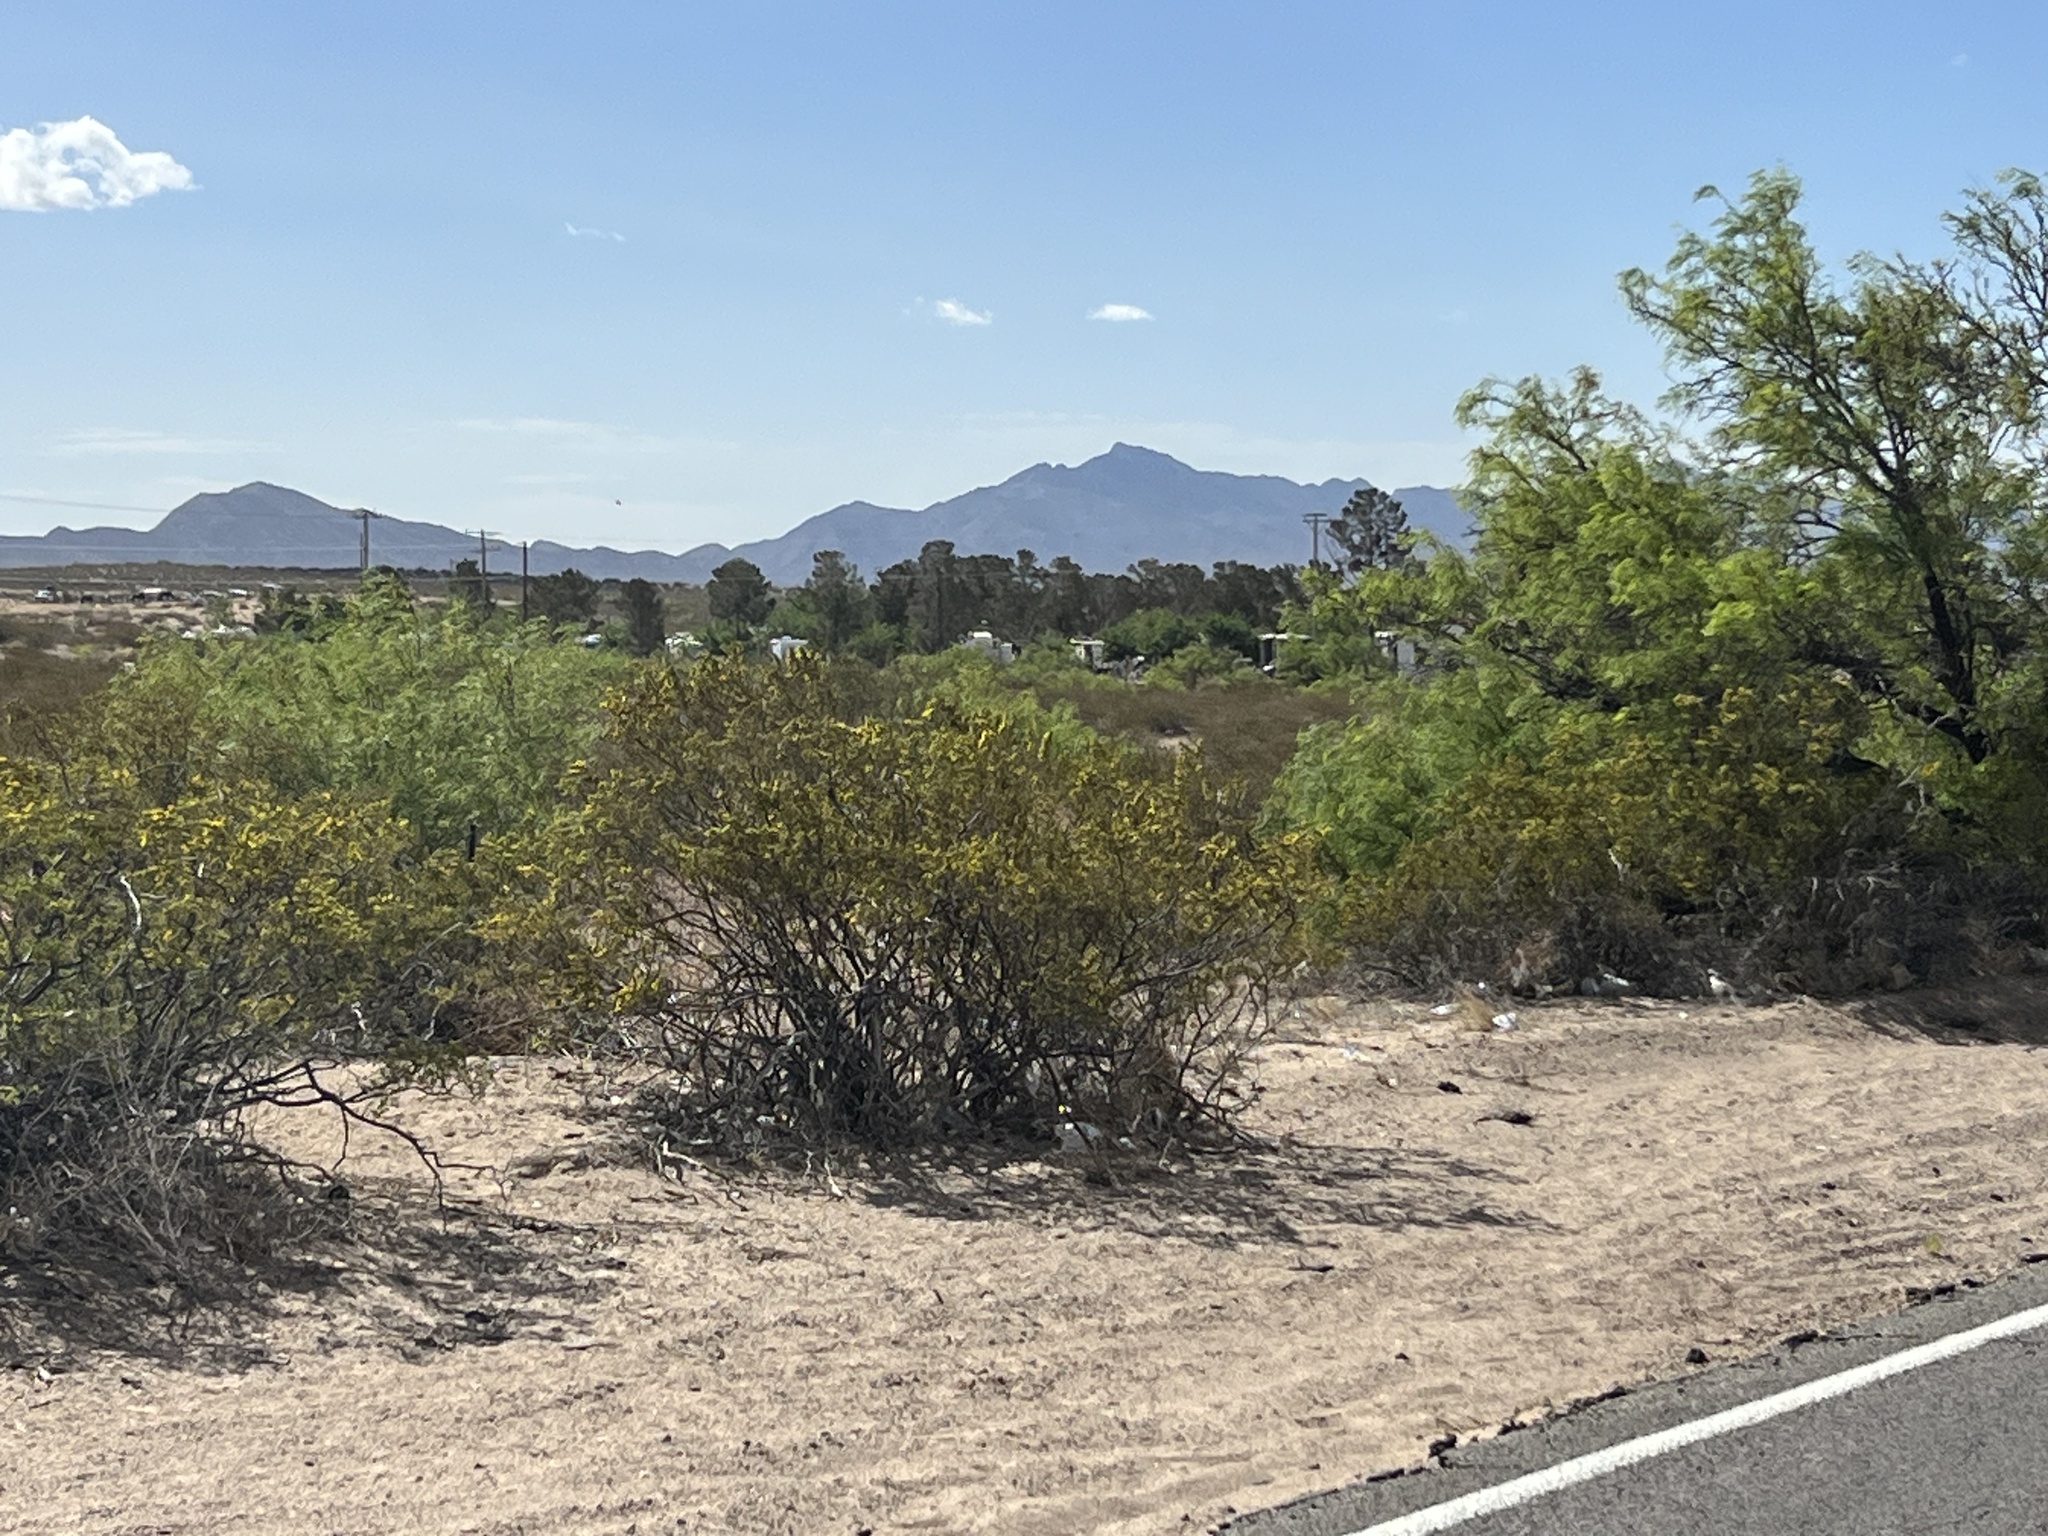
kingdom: Plantae
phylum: Tracheophyta
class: Magnoliopsida
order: Zygophyllales
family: Zygophyllaceae
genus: Larrea
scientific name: Larrea tridentata
